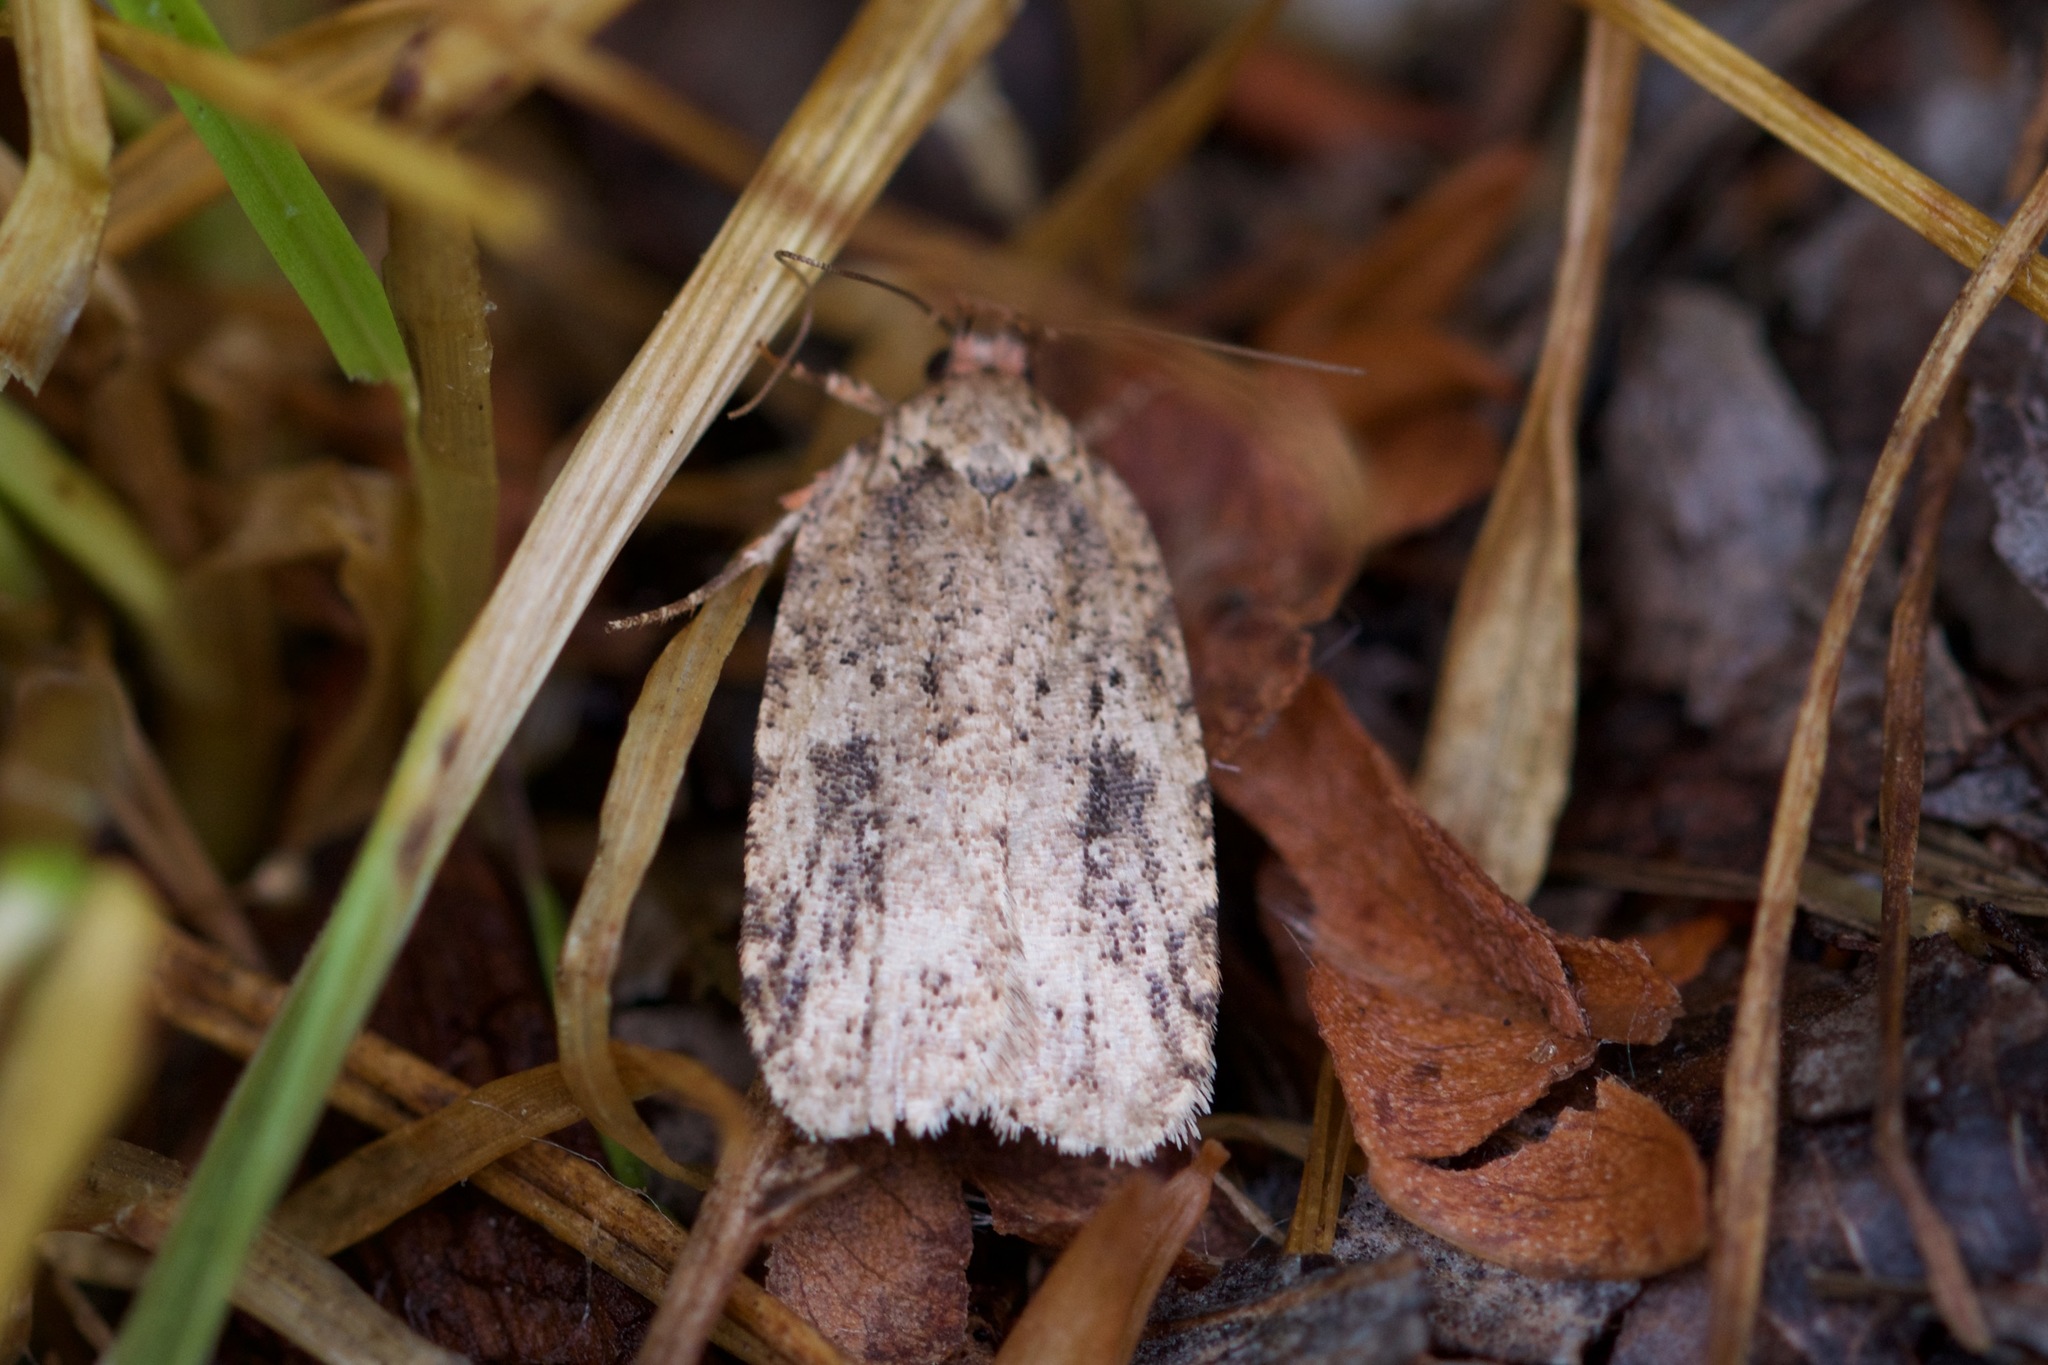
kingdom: Animalia
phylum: Arthropoda
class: Insecta
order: Lepidoptera
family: Depressariidae
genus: Agonopterix
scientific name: Agonopterix pulvipennella
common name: Goldenrod leafffolder
